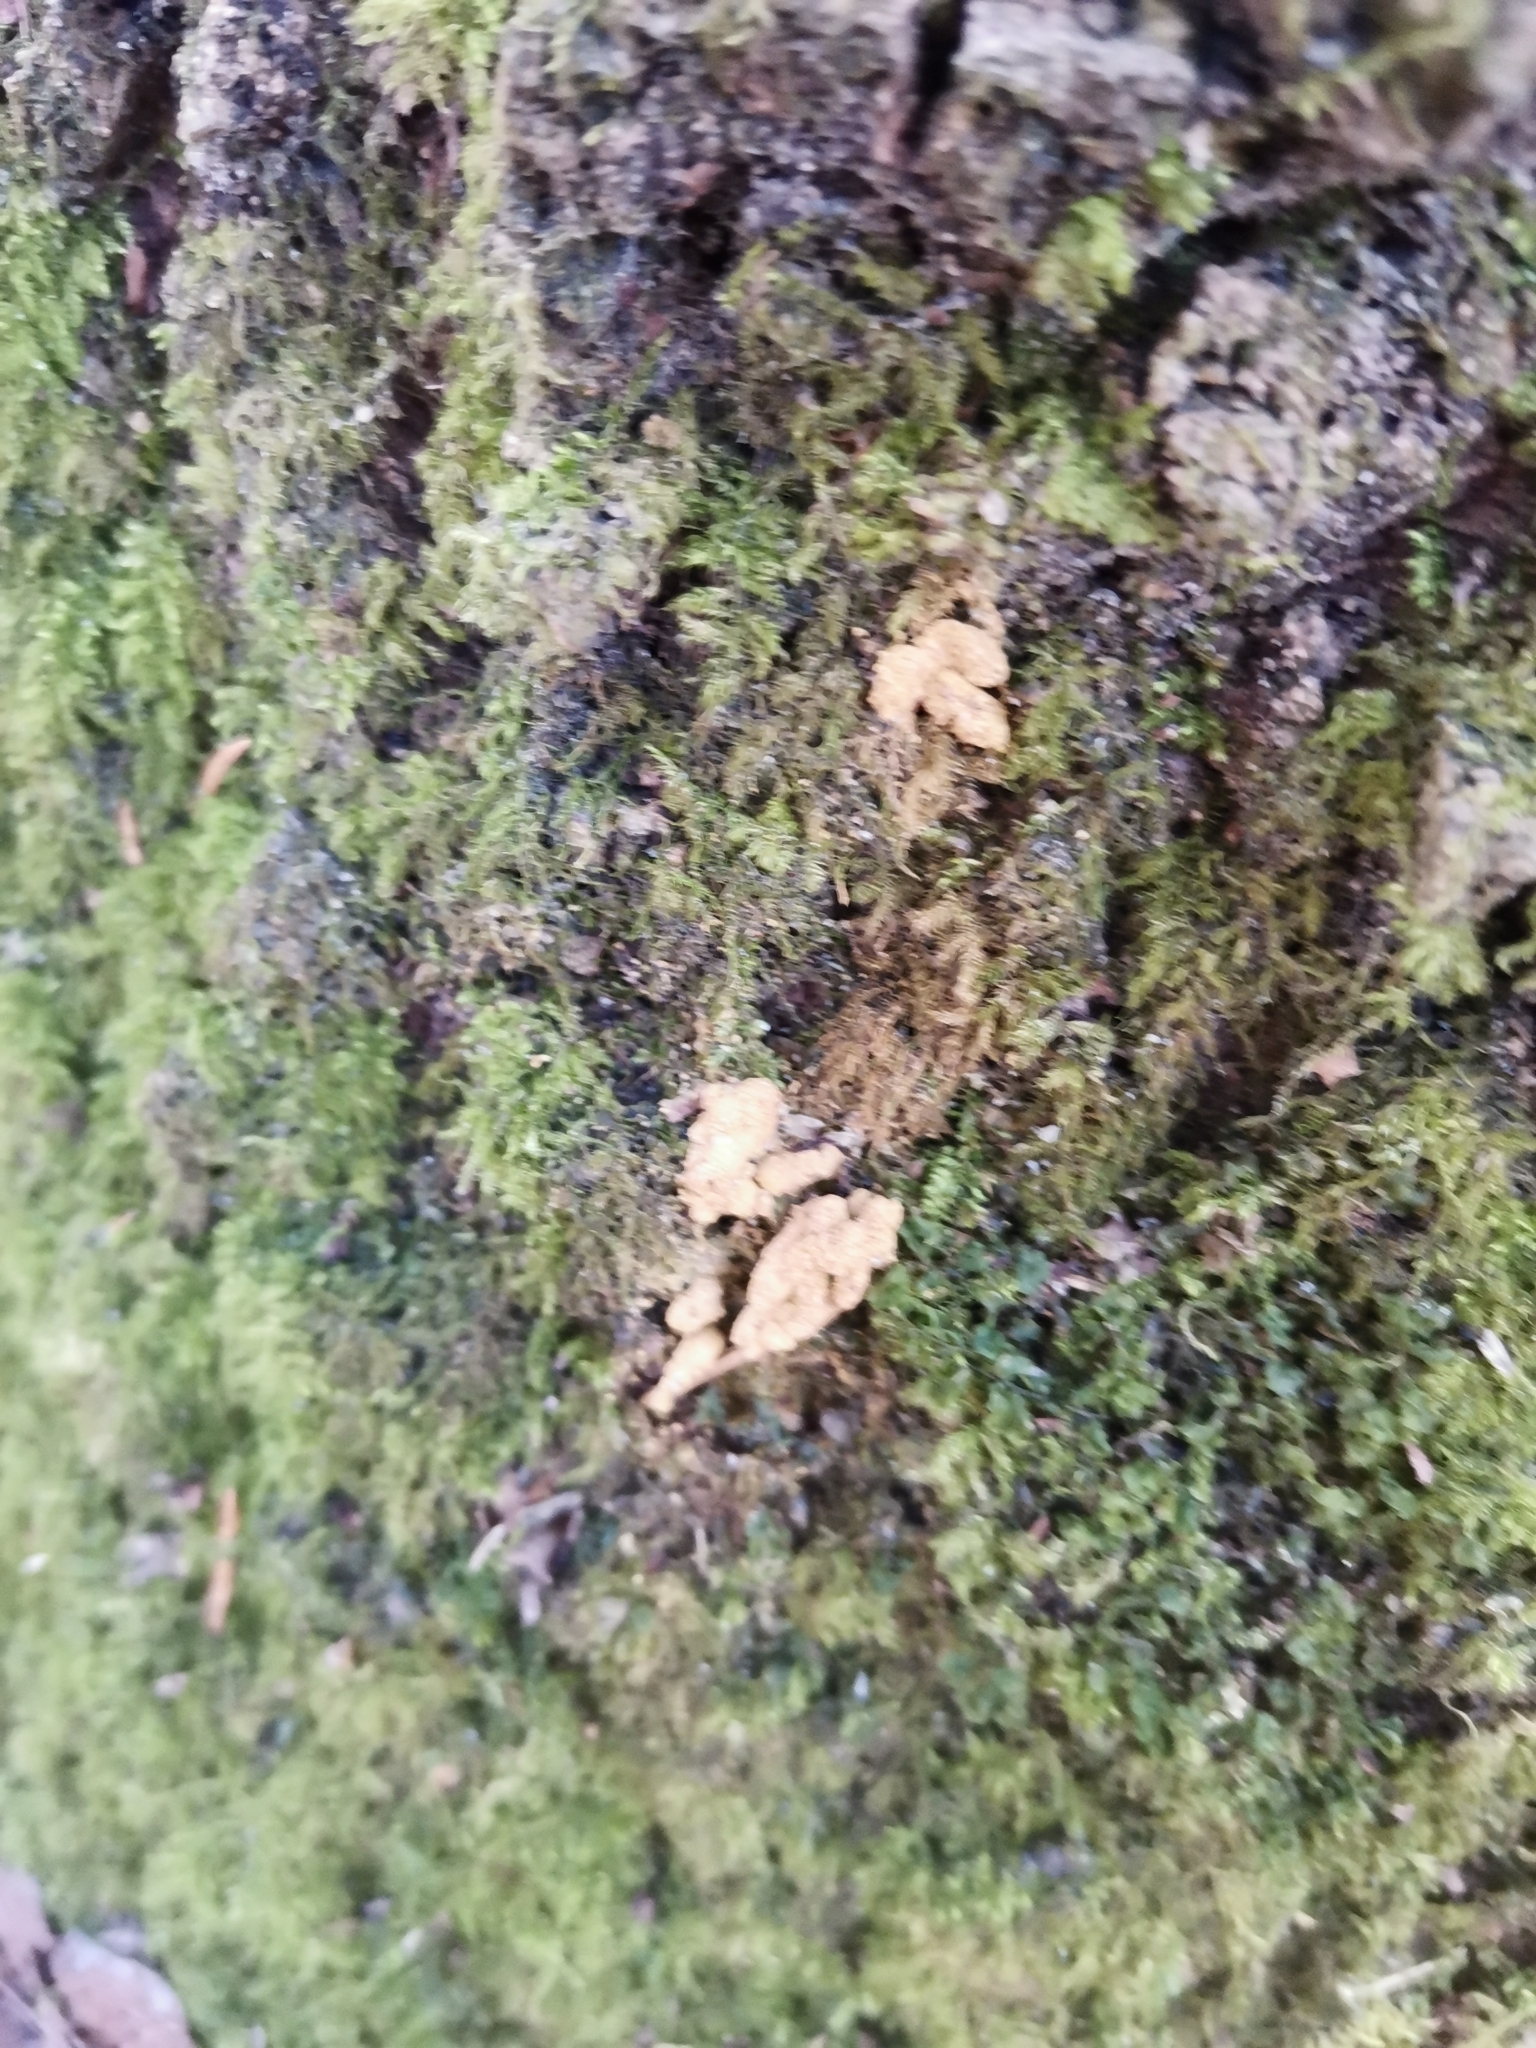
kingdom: Animalia
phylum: Chordata
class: Mammalia
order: Rodentia
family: Sciuridae
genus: Pteromys
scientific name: Pteromys volans
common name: Siberian flying squirrel
